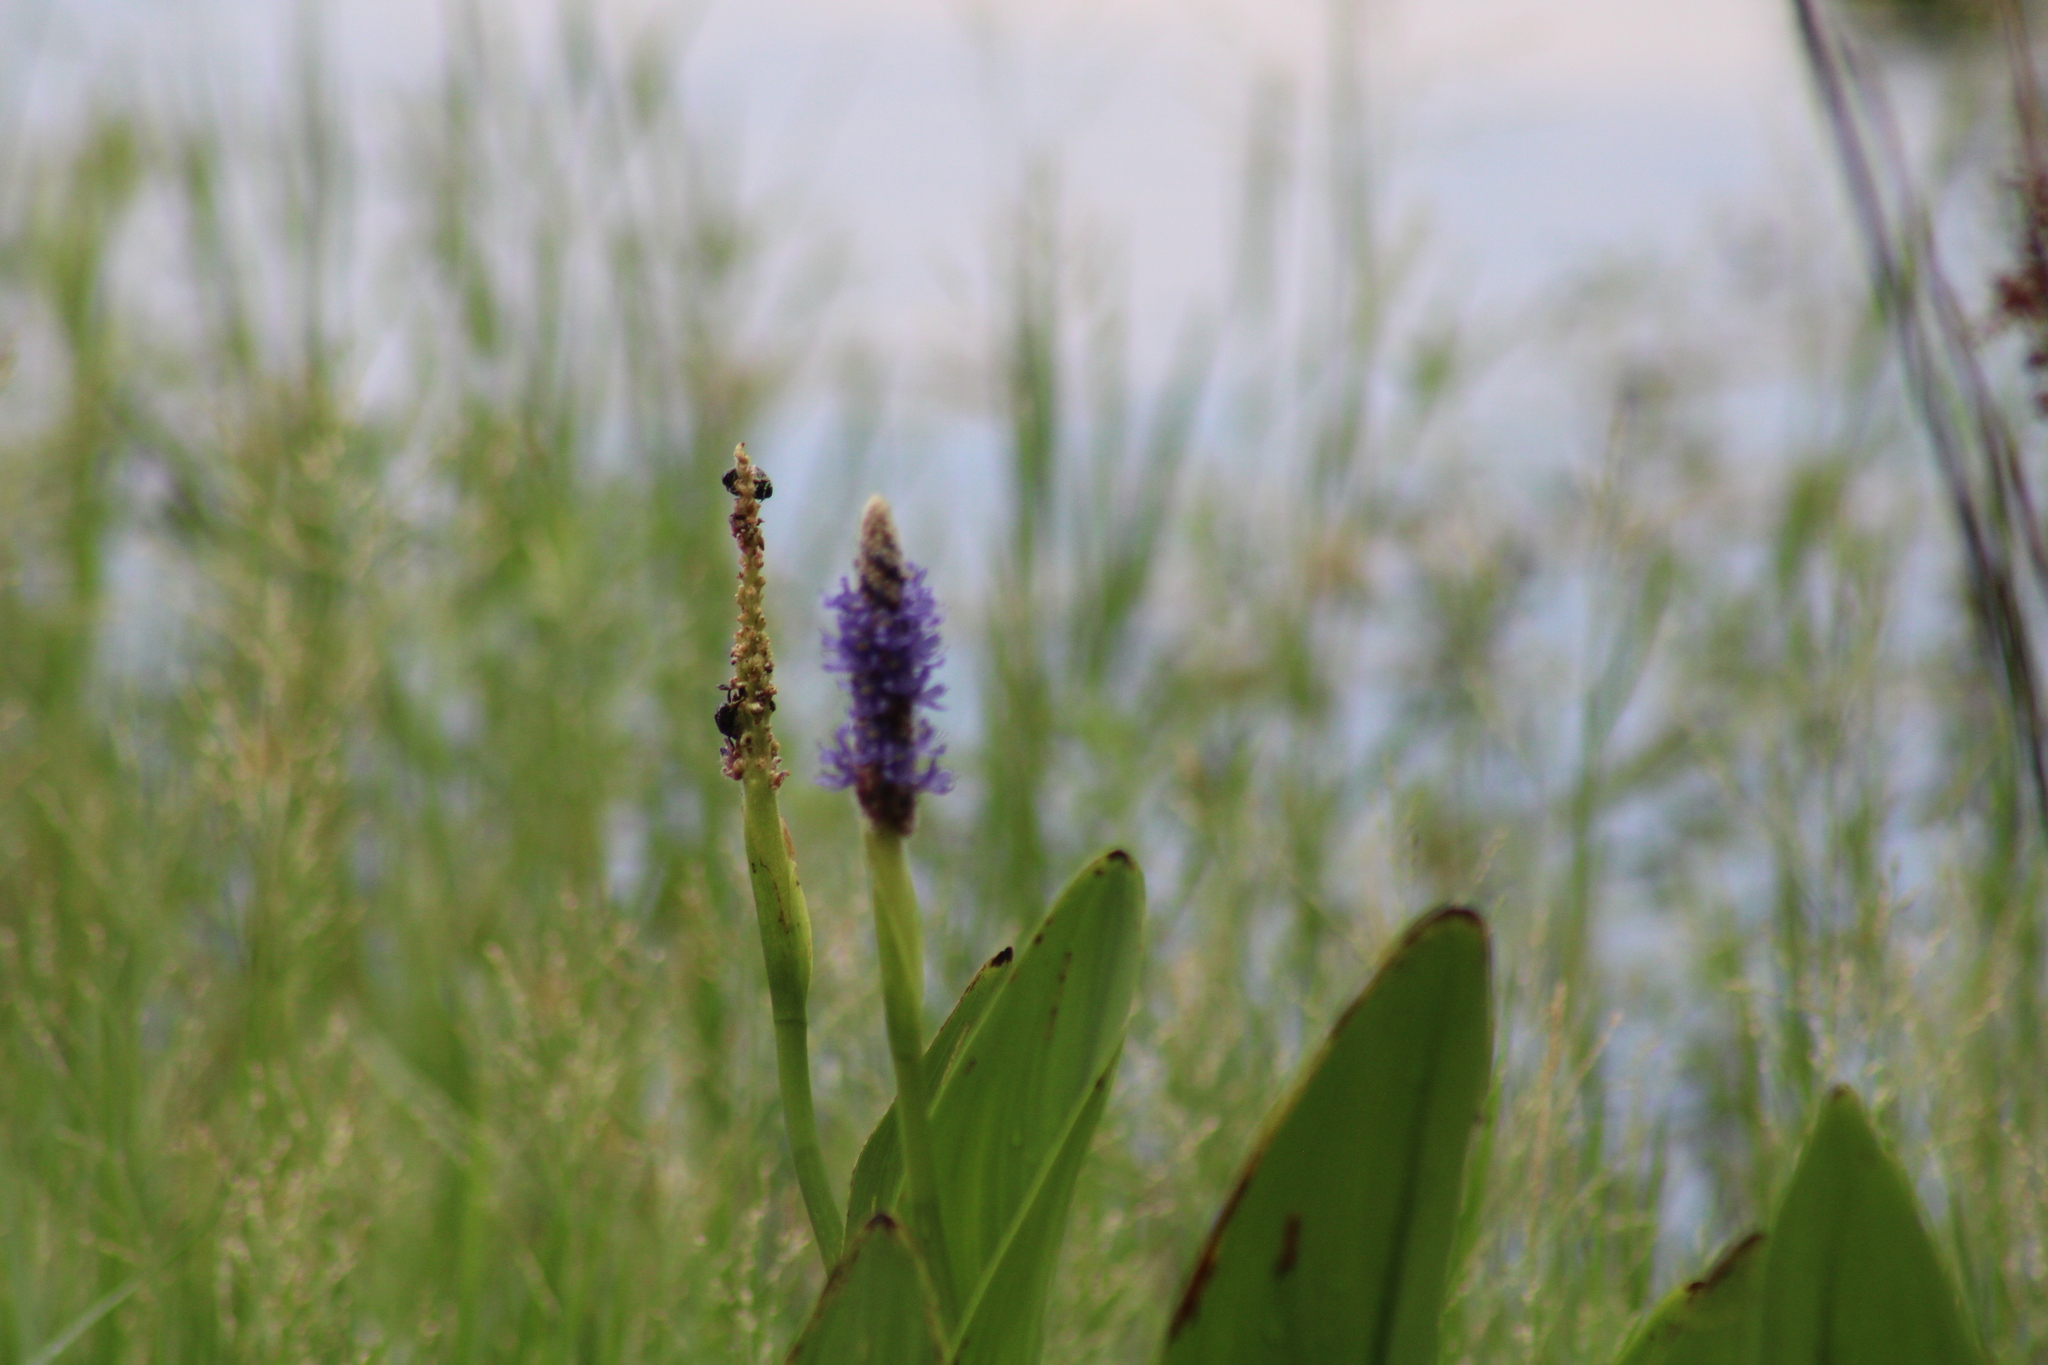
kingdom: Plantae
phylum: Tracheophyta
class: Liliopsida
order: Commelinales
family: Pontederiaceae
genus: Pontederia
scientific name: Pontederia cordata
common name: Pickerelweed
